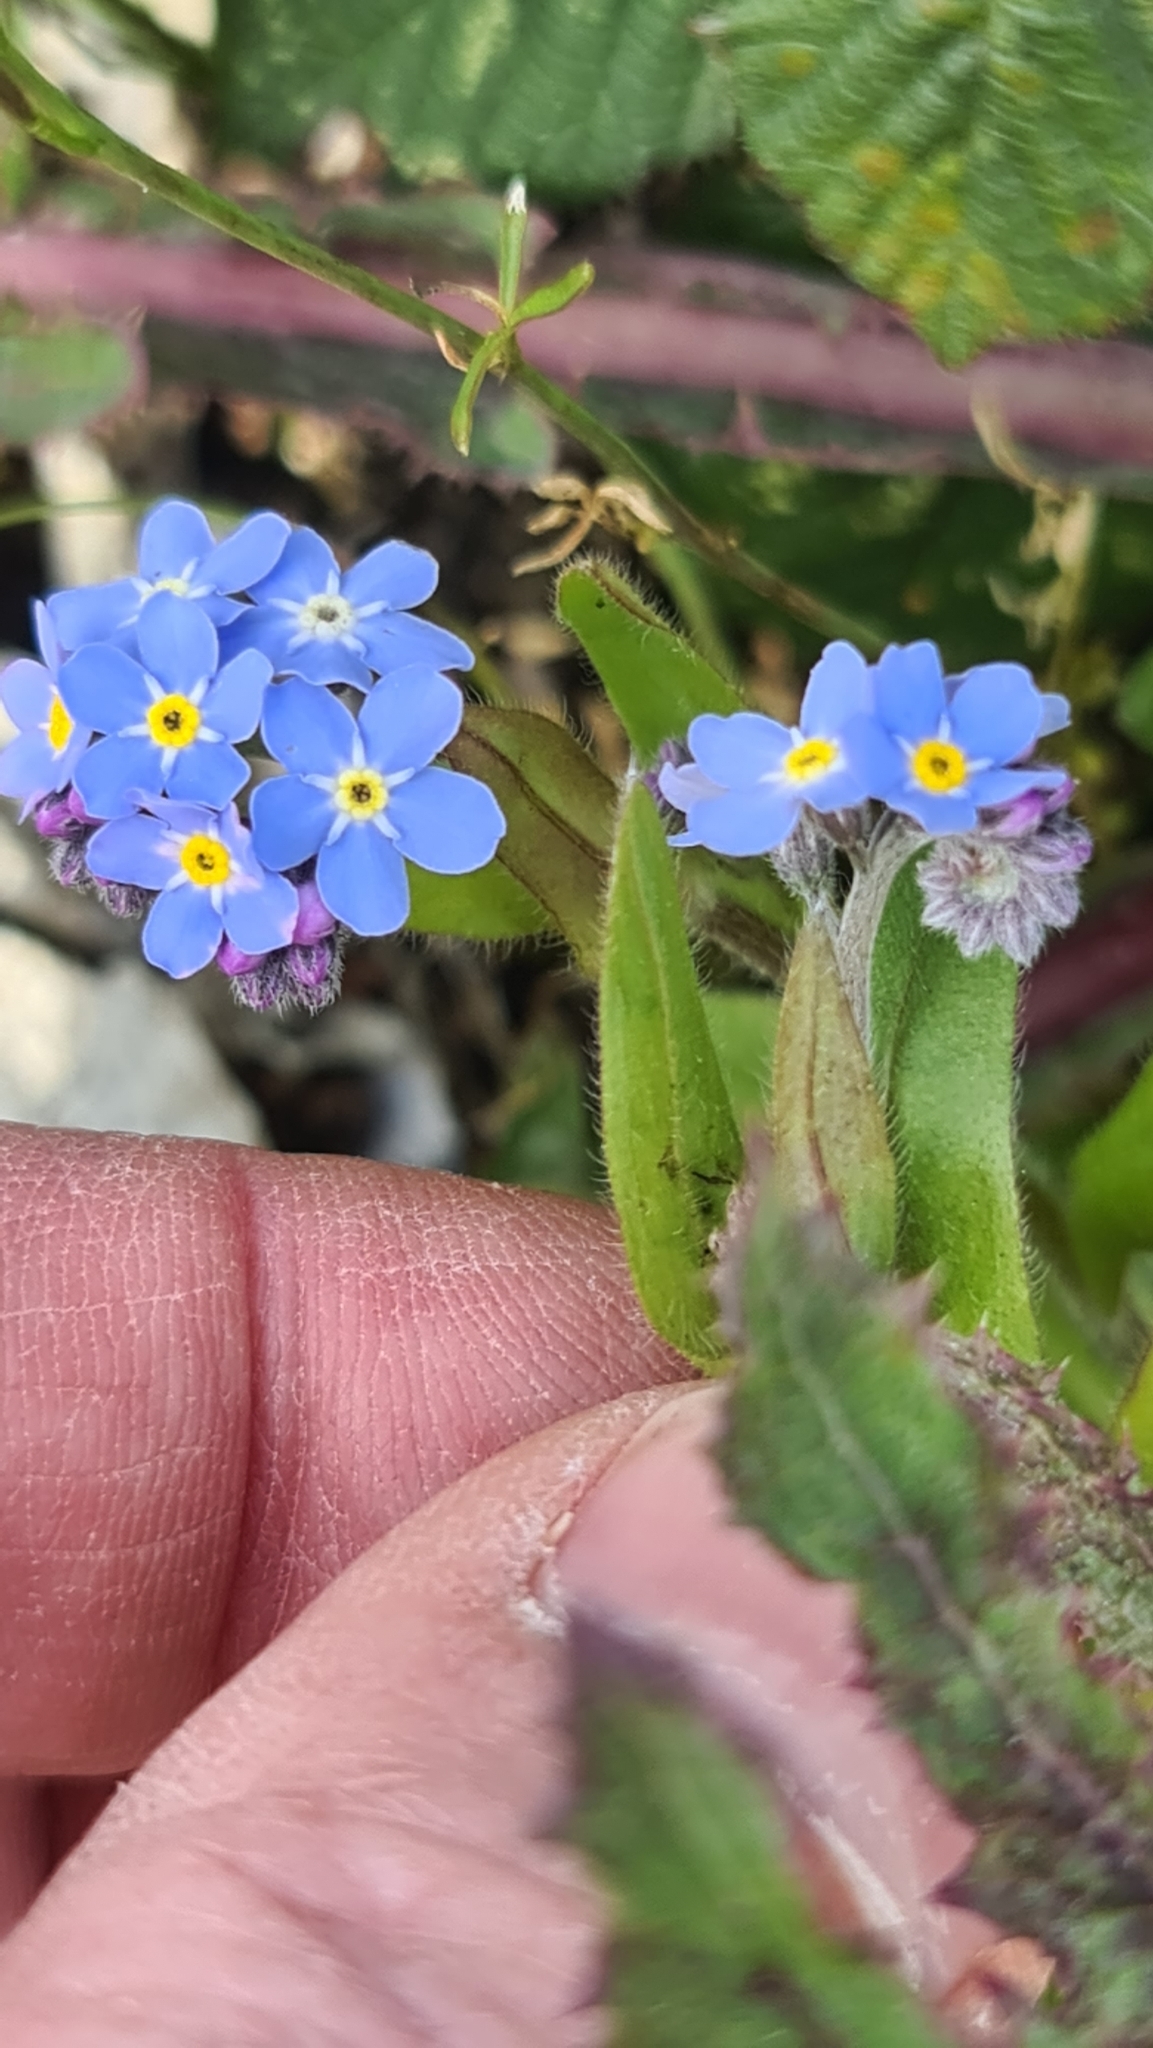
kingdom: Plantae
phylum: Tracheophyta
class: Magnoliopsida
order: Boraginales
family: Boraginaceae
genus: Myosotis
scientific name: Myosotis sylvatica
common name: Wood forget-me-not
